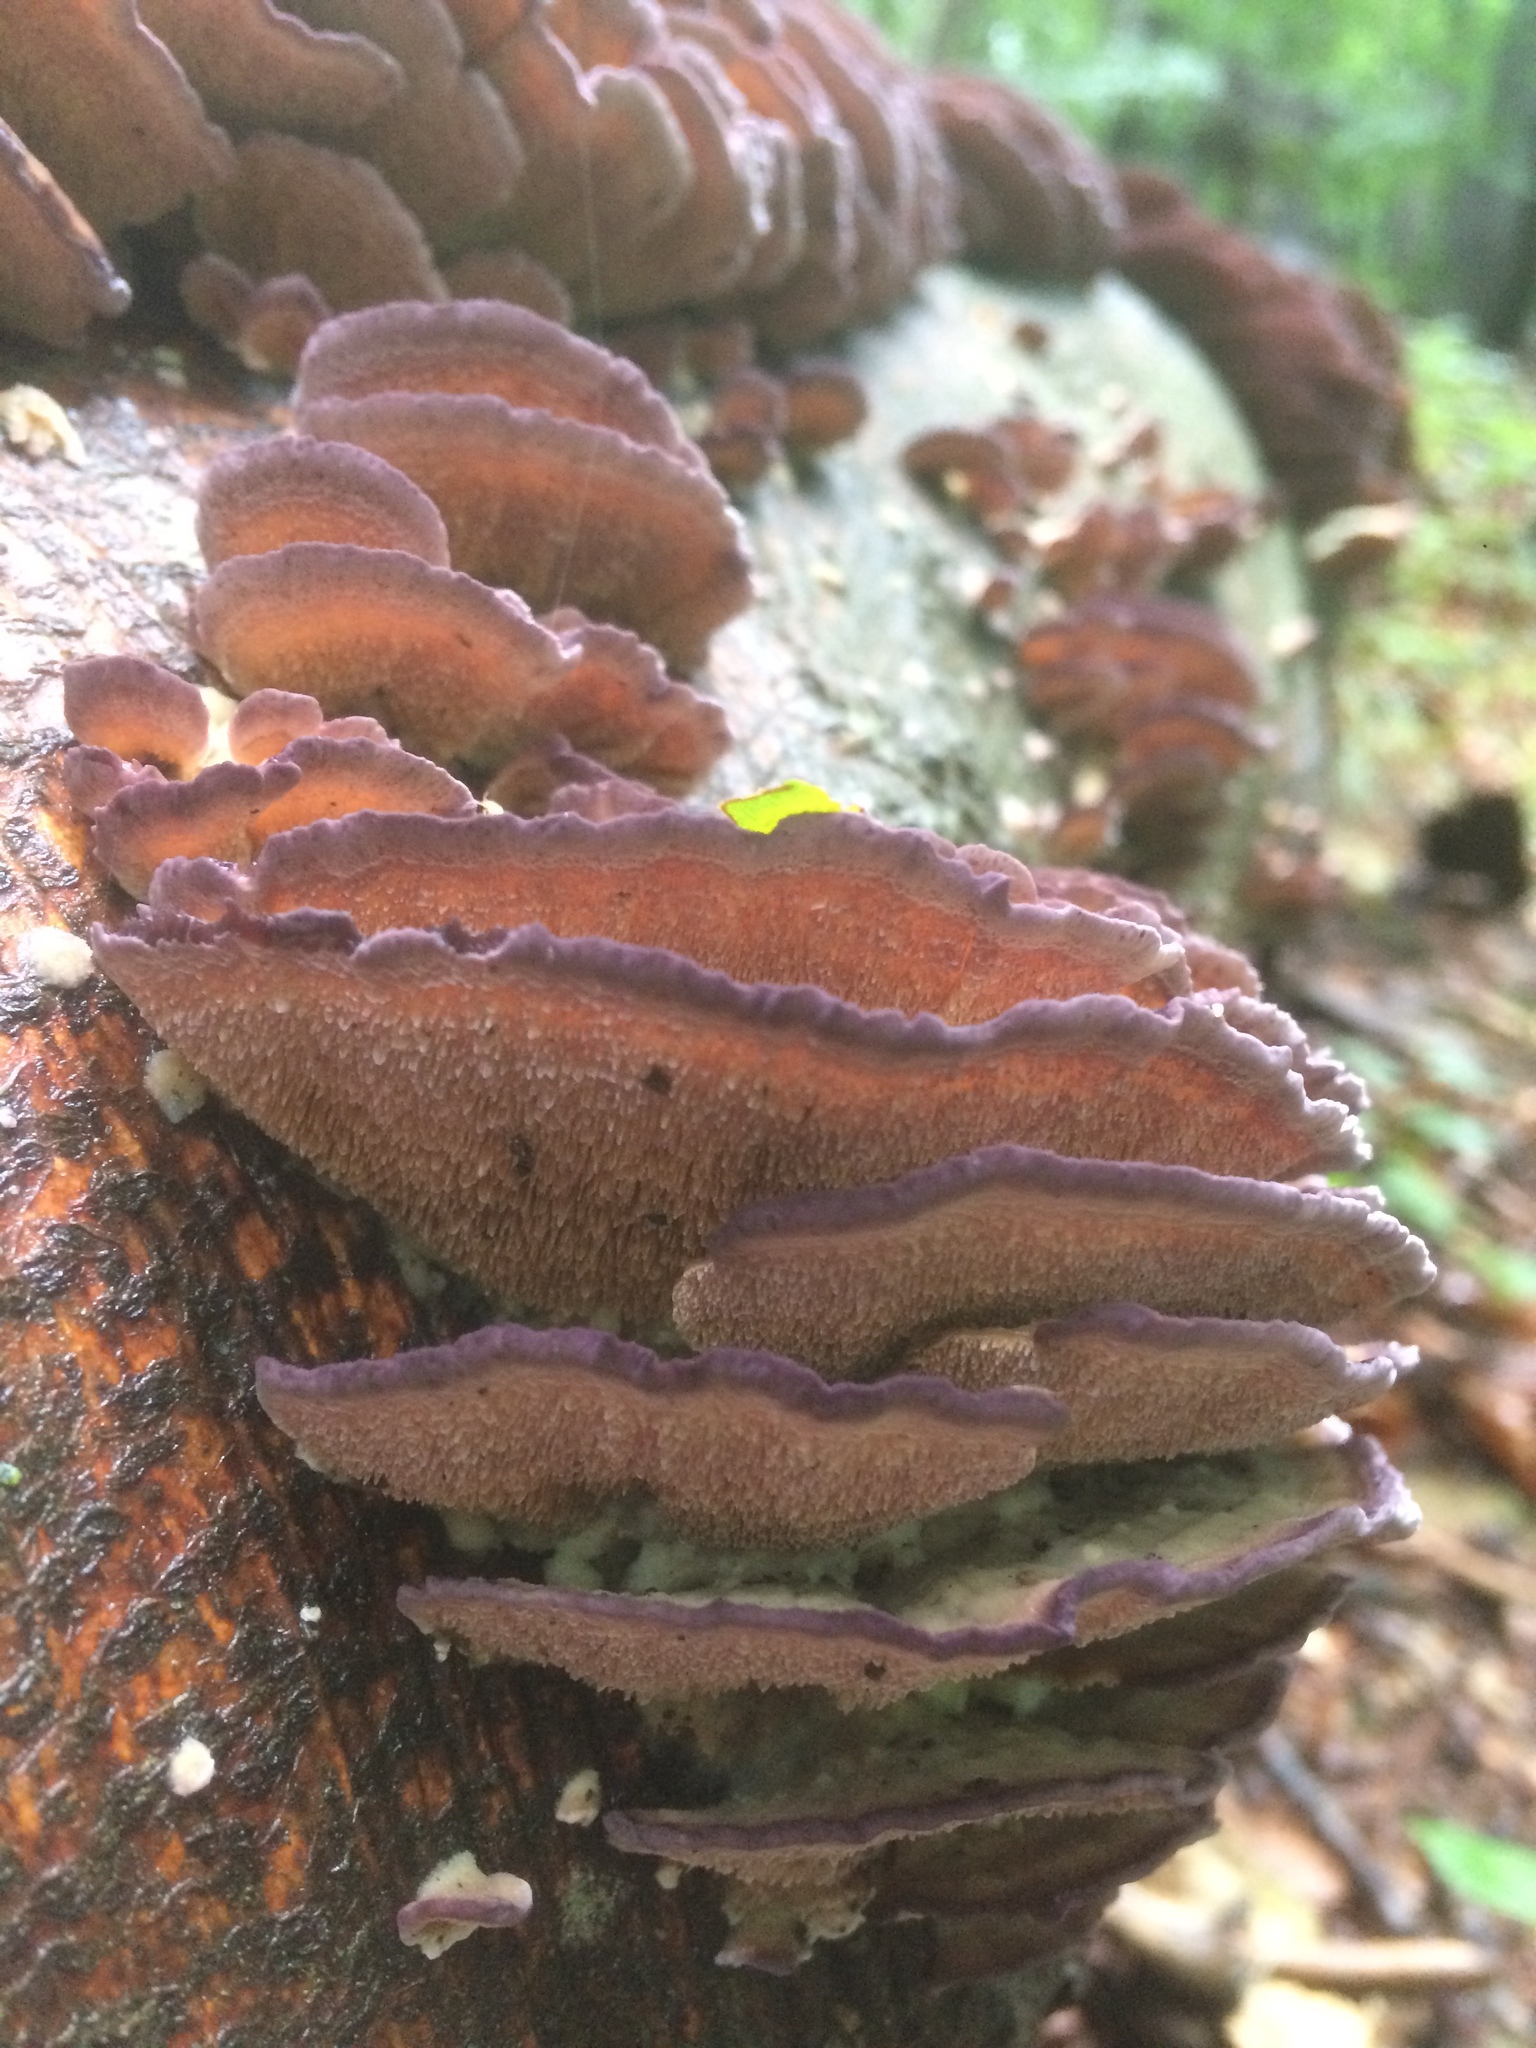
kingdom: Fungi
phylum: Basidiomycota
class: Agaricomycetes
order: Hymenochaetales
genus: Trichaptum
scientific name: Trichaptum biforme
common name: Violet-toothed polypore
